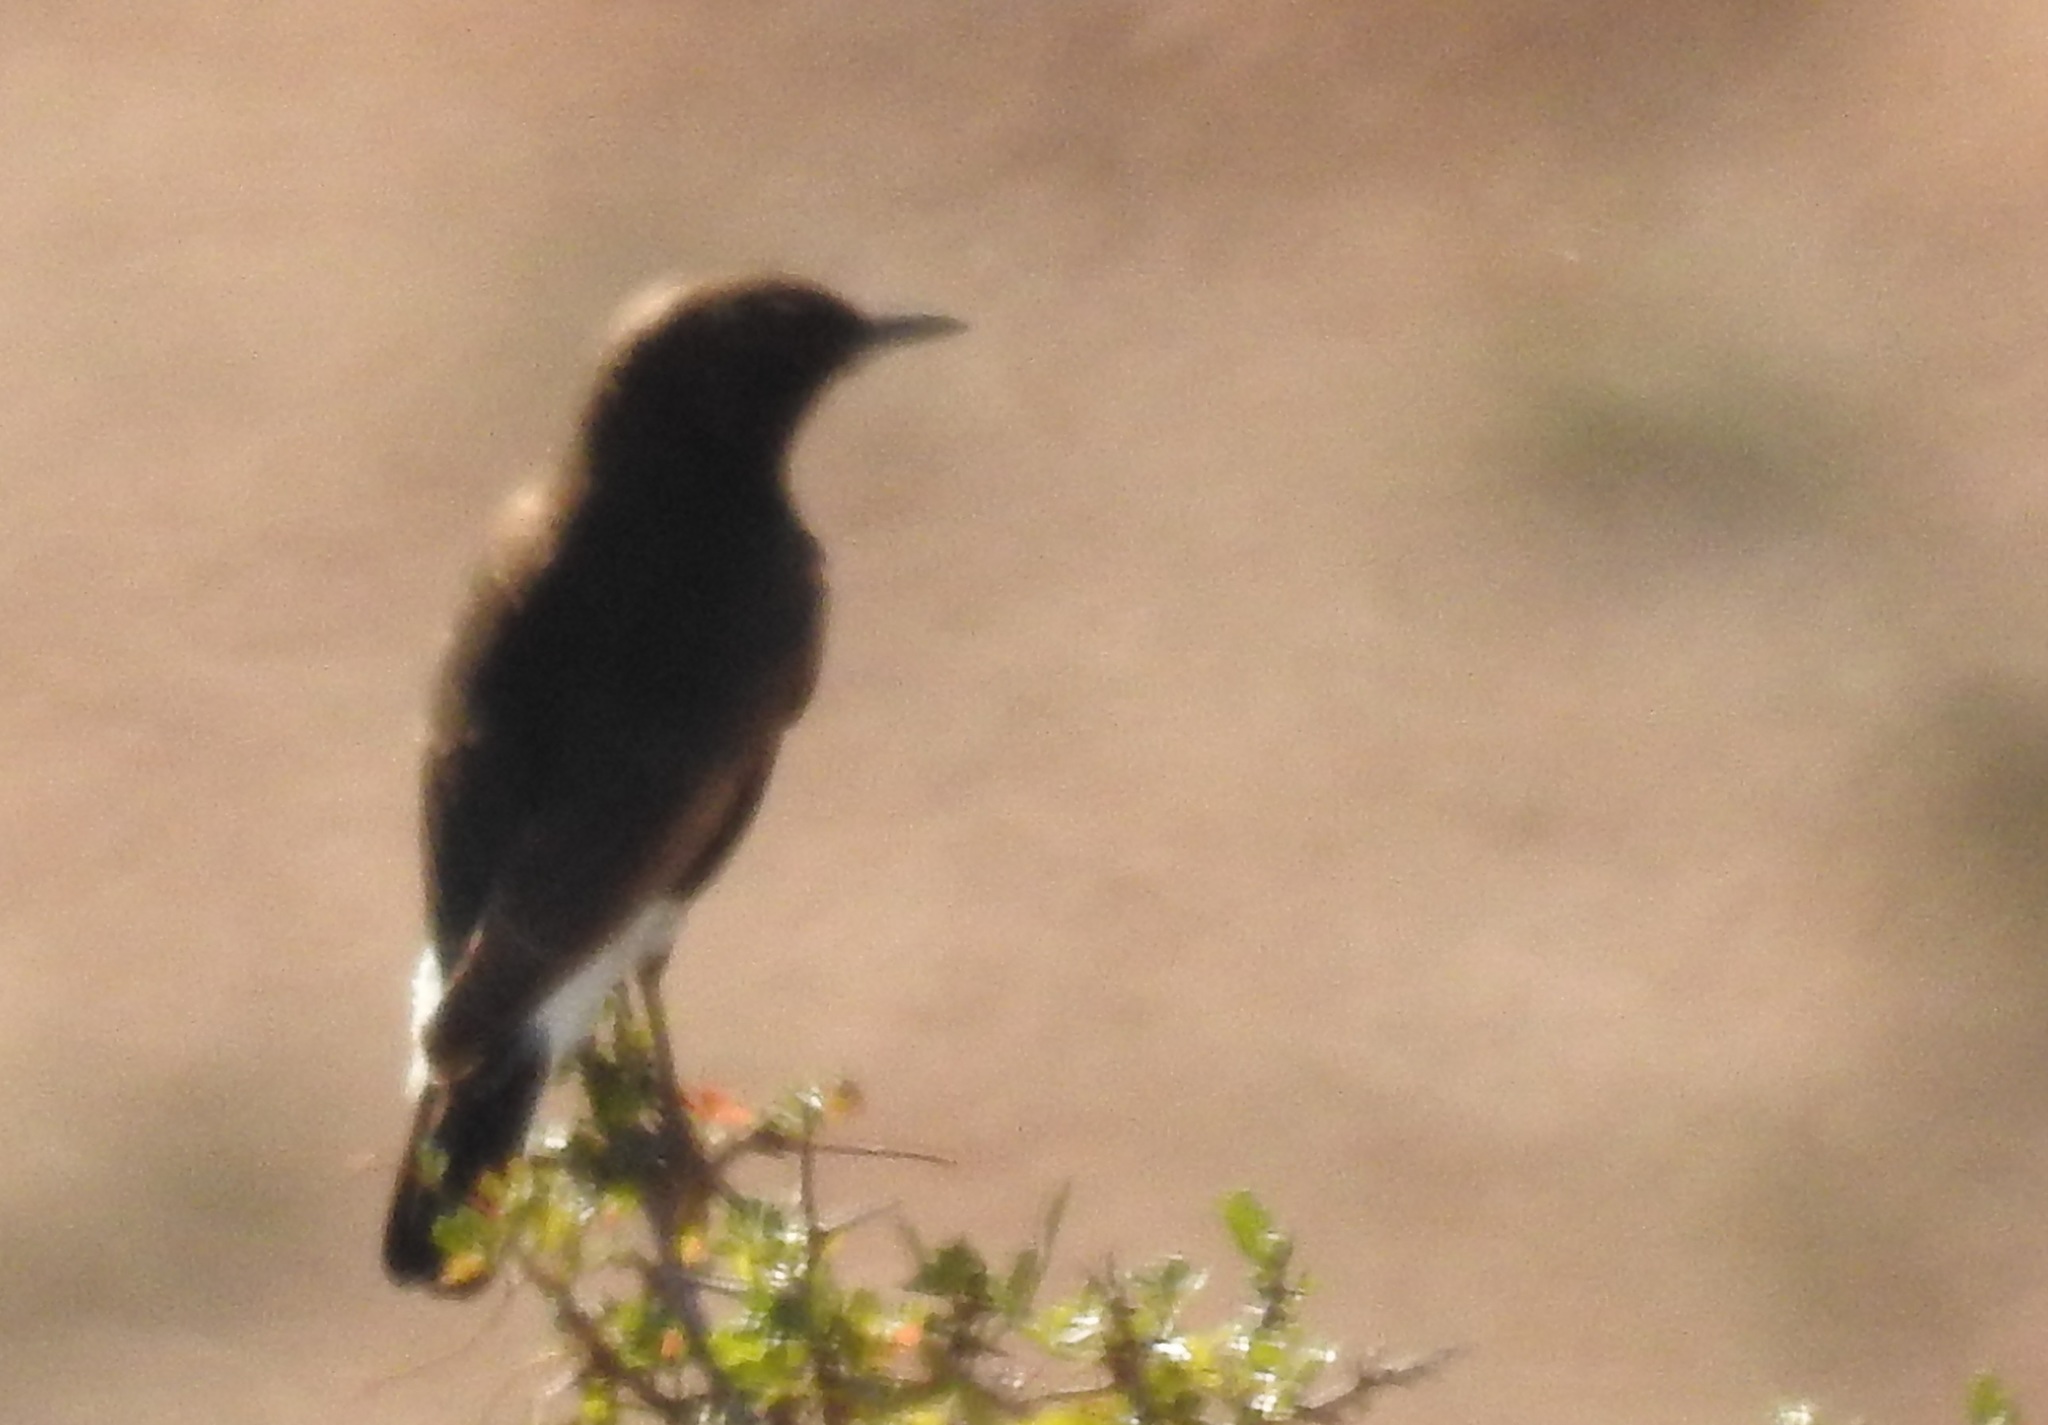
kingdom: Animalia
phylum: Chordata
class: Aves
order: Passeriformes
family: Muscicapidae
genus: Oenanthe
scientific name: Oenanthe leucura
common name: Black wheatear
